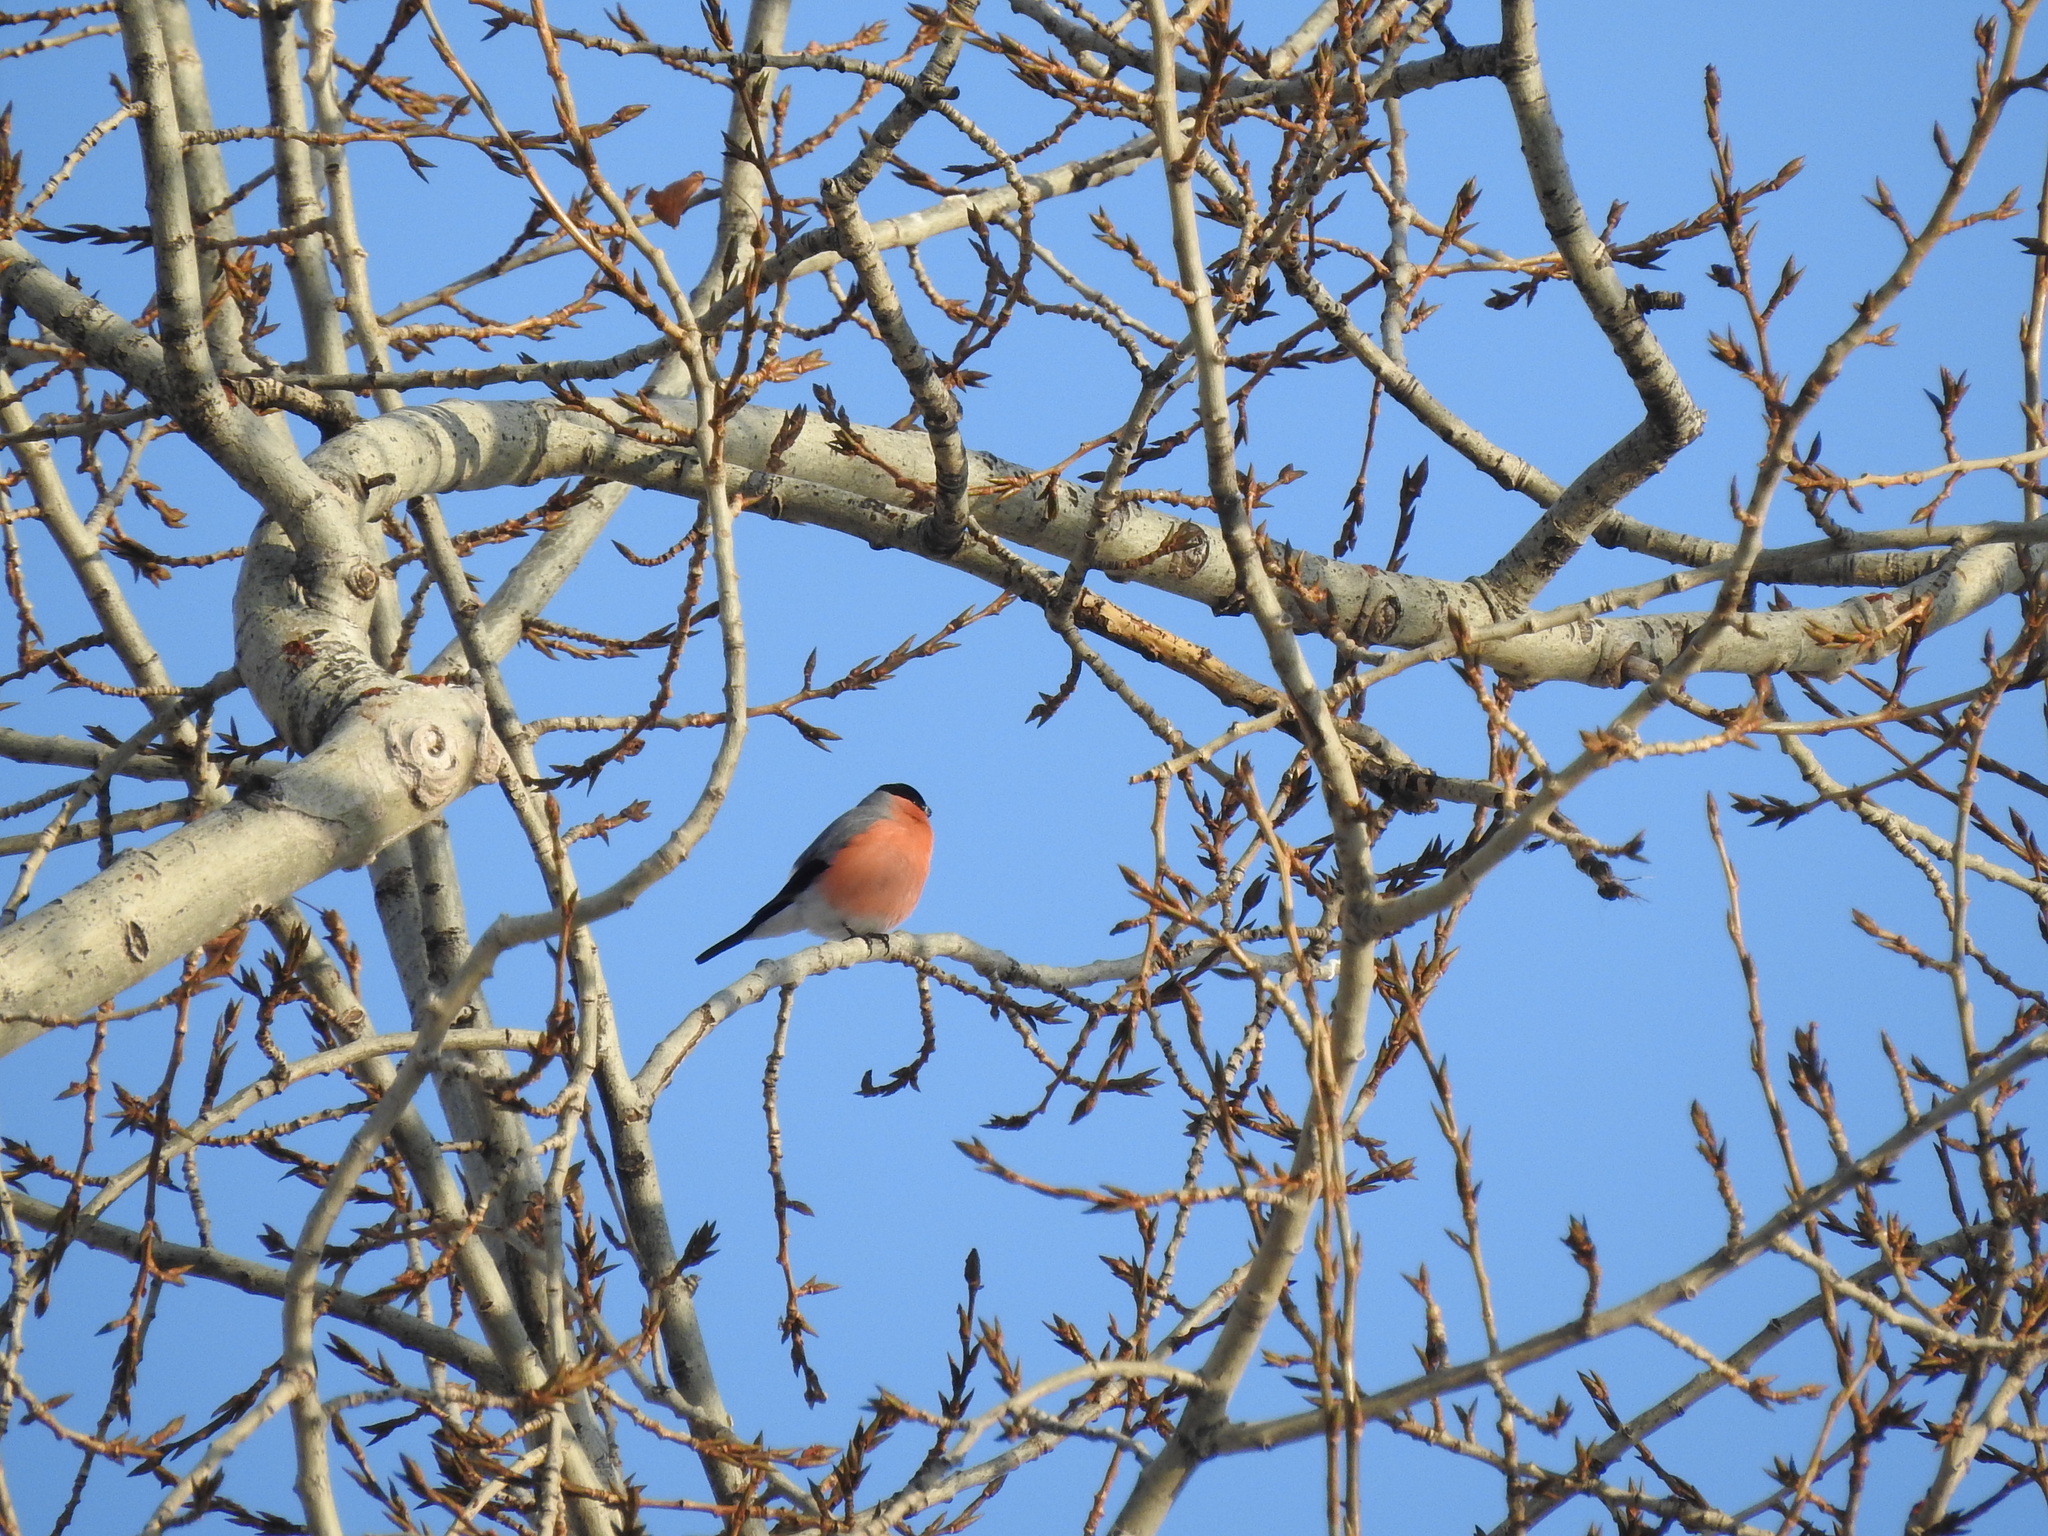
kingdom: Animalia
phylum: Chordata
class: Aves
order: Passeriformes
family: Fringillidae
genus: Pyrrhula
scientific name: Pyrrhula pyrrhula
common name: Eurasian bullfinch
